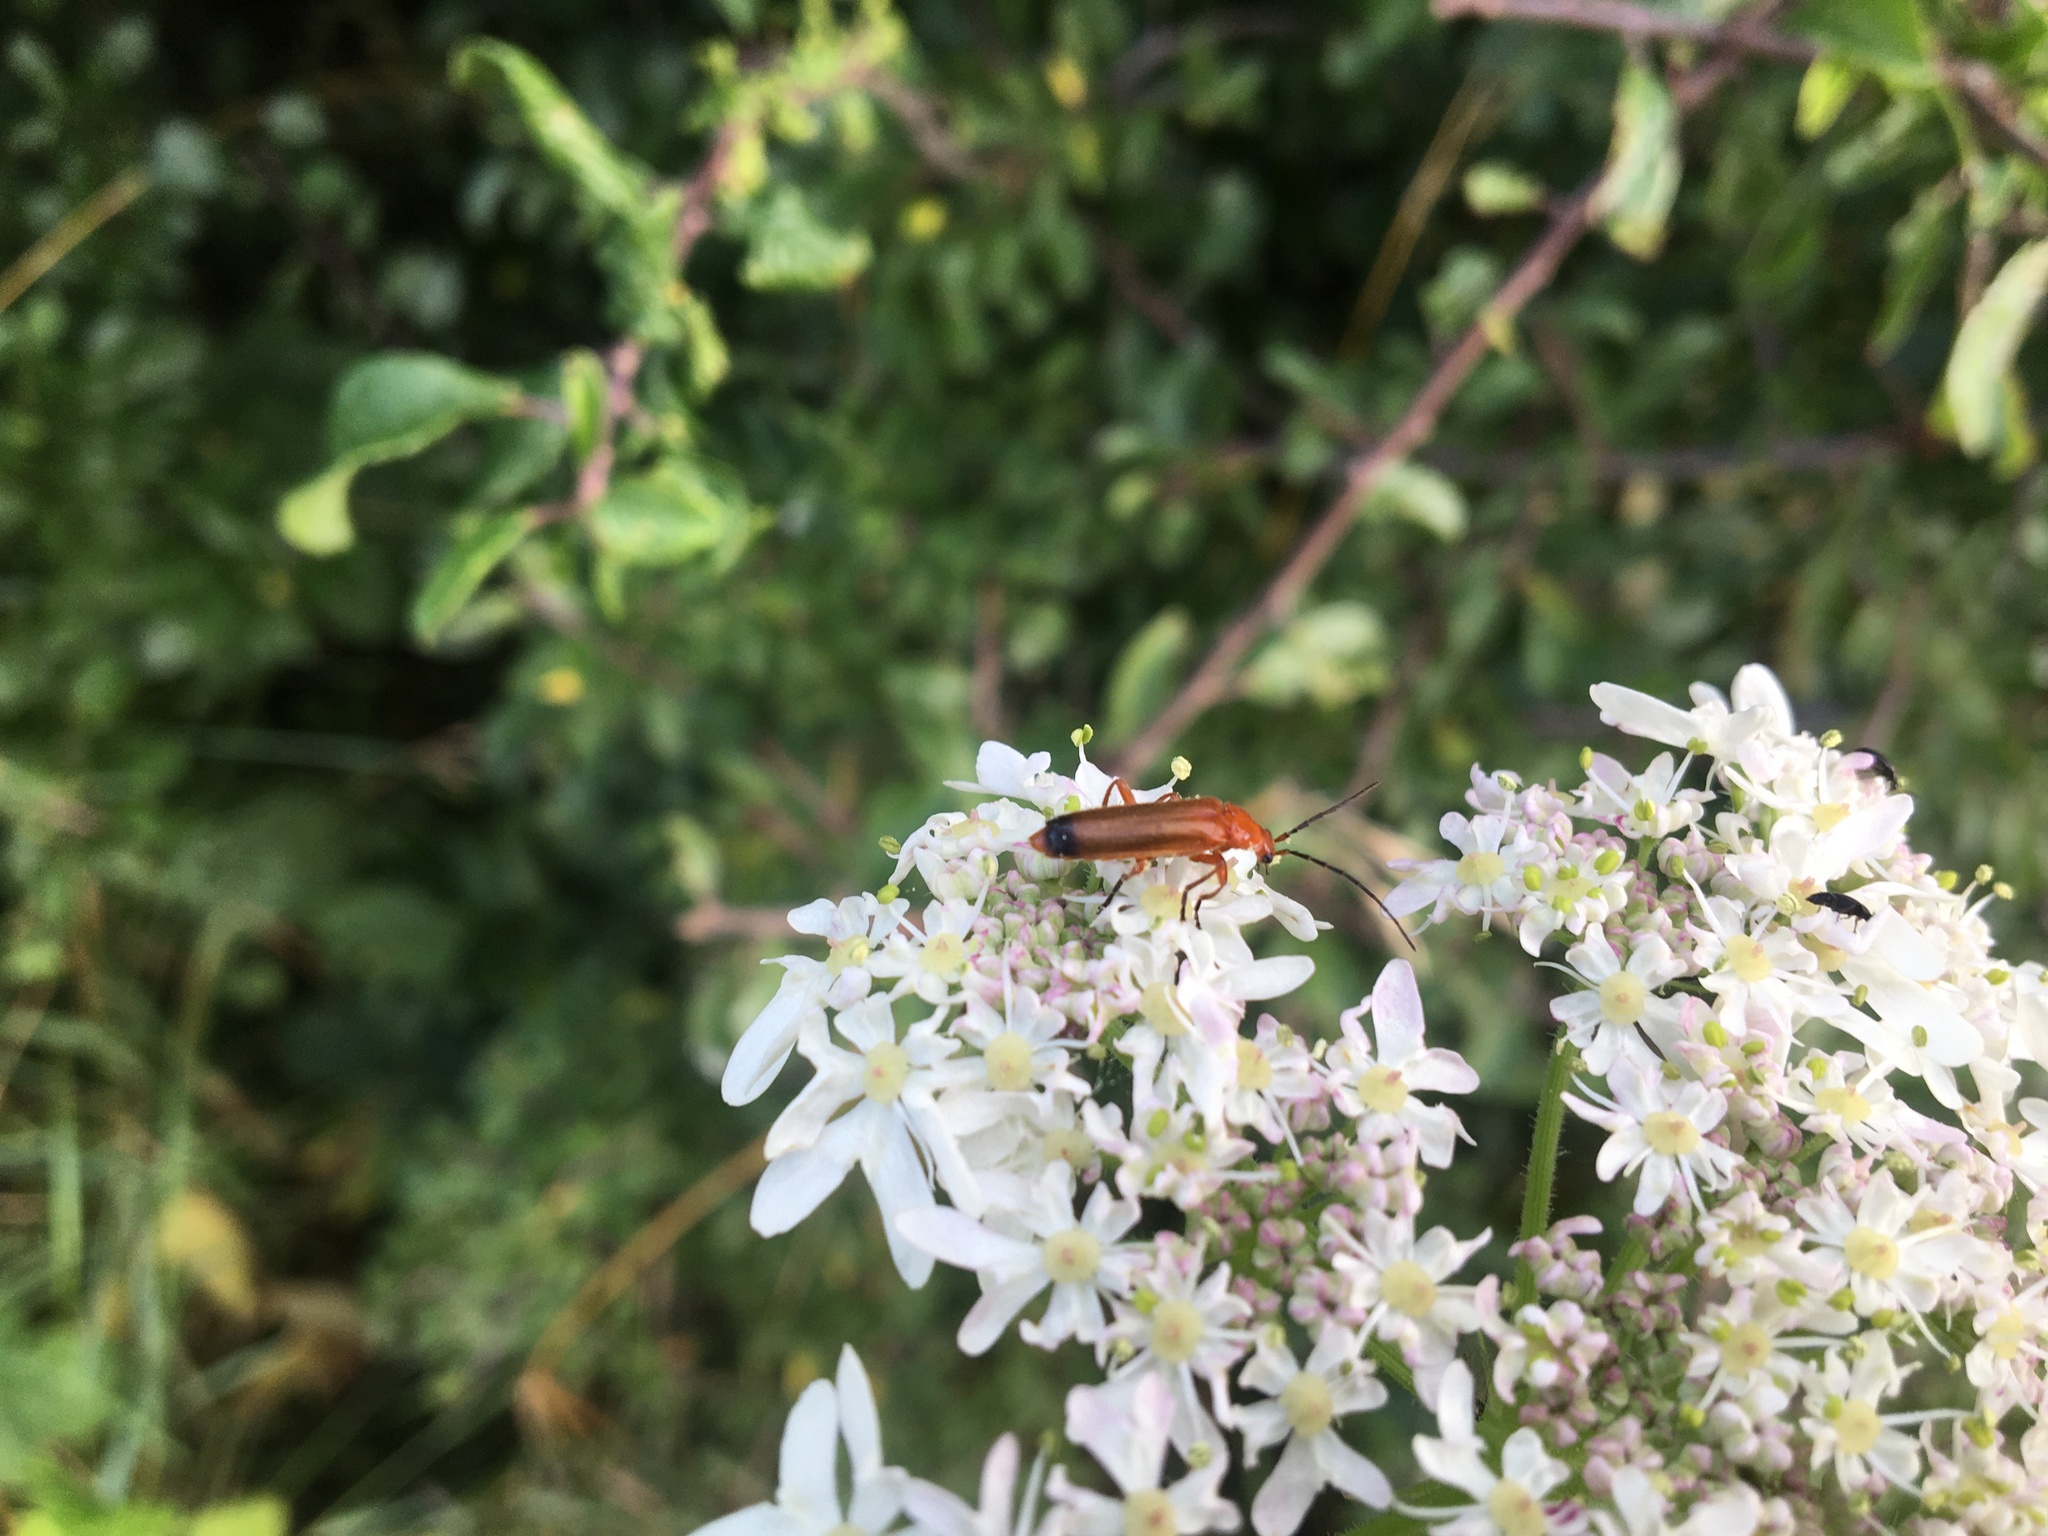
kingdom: Animalia
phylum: Arthropoda
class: Insecta
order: Coleoptera
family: Cantharidae
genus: Rhagonycha
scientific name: Rhagonycha fulva
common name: Common red soldier beetle
